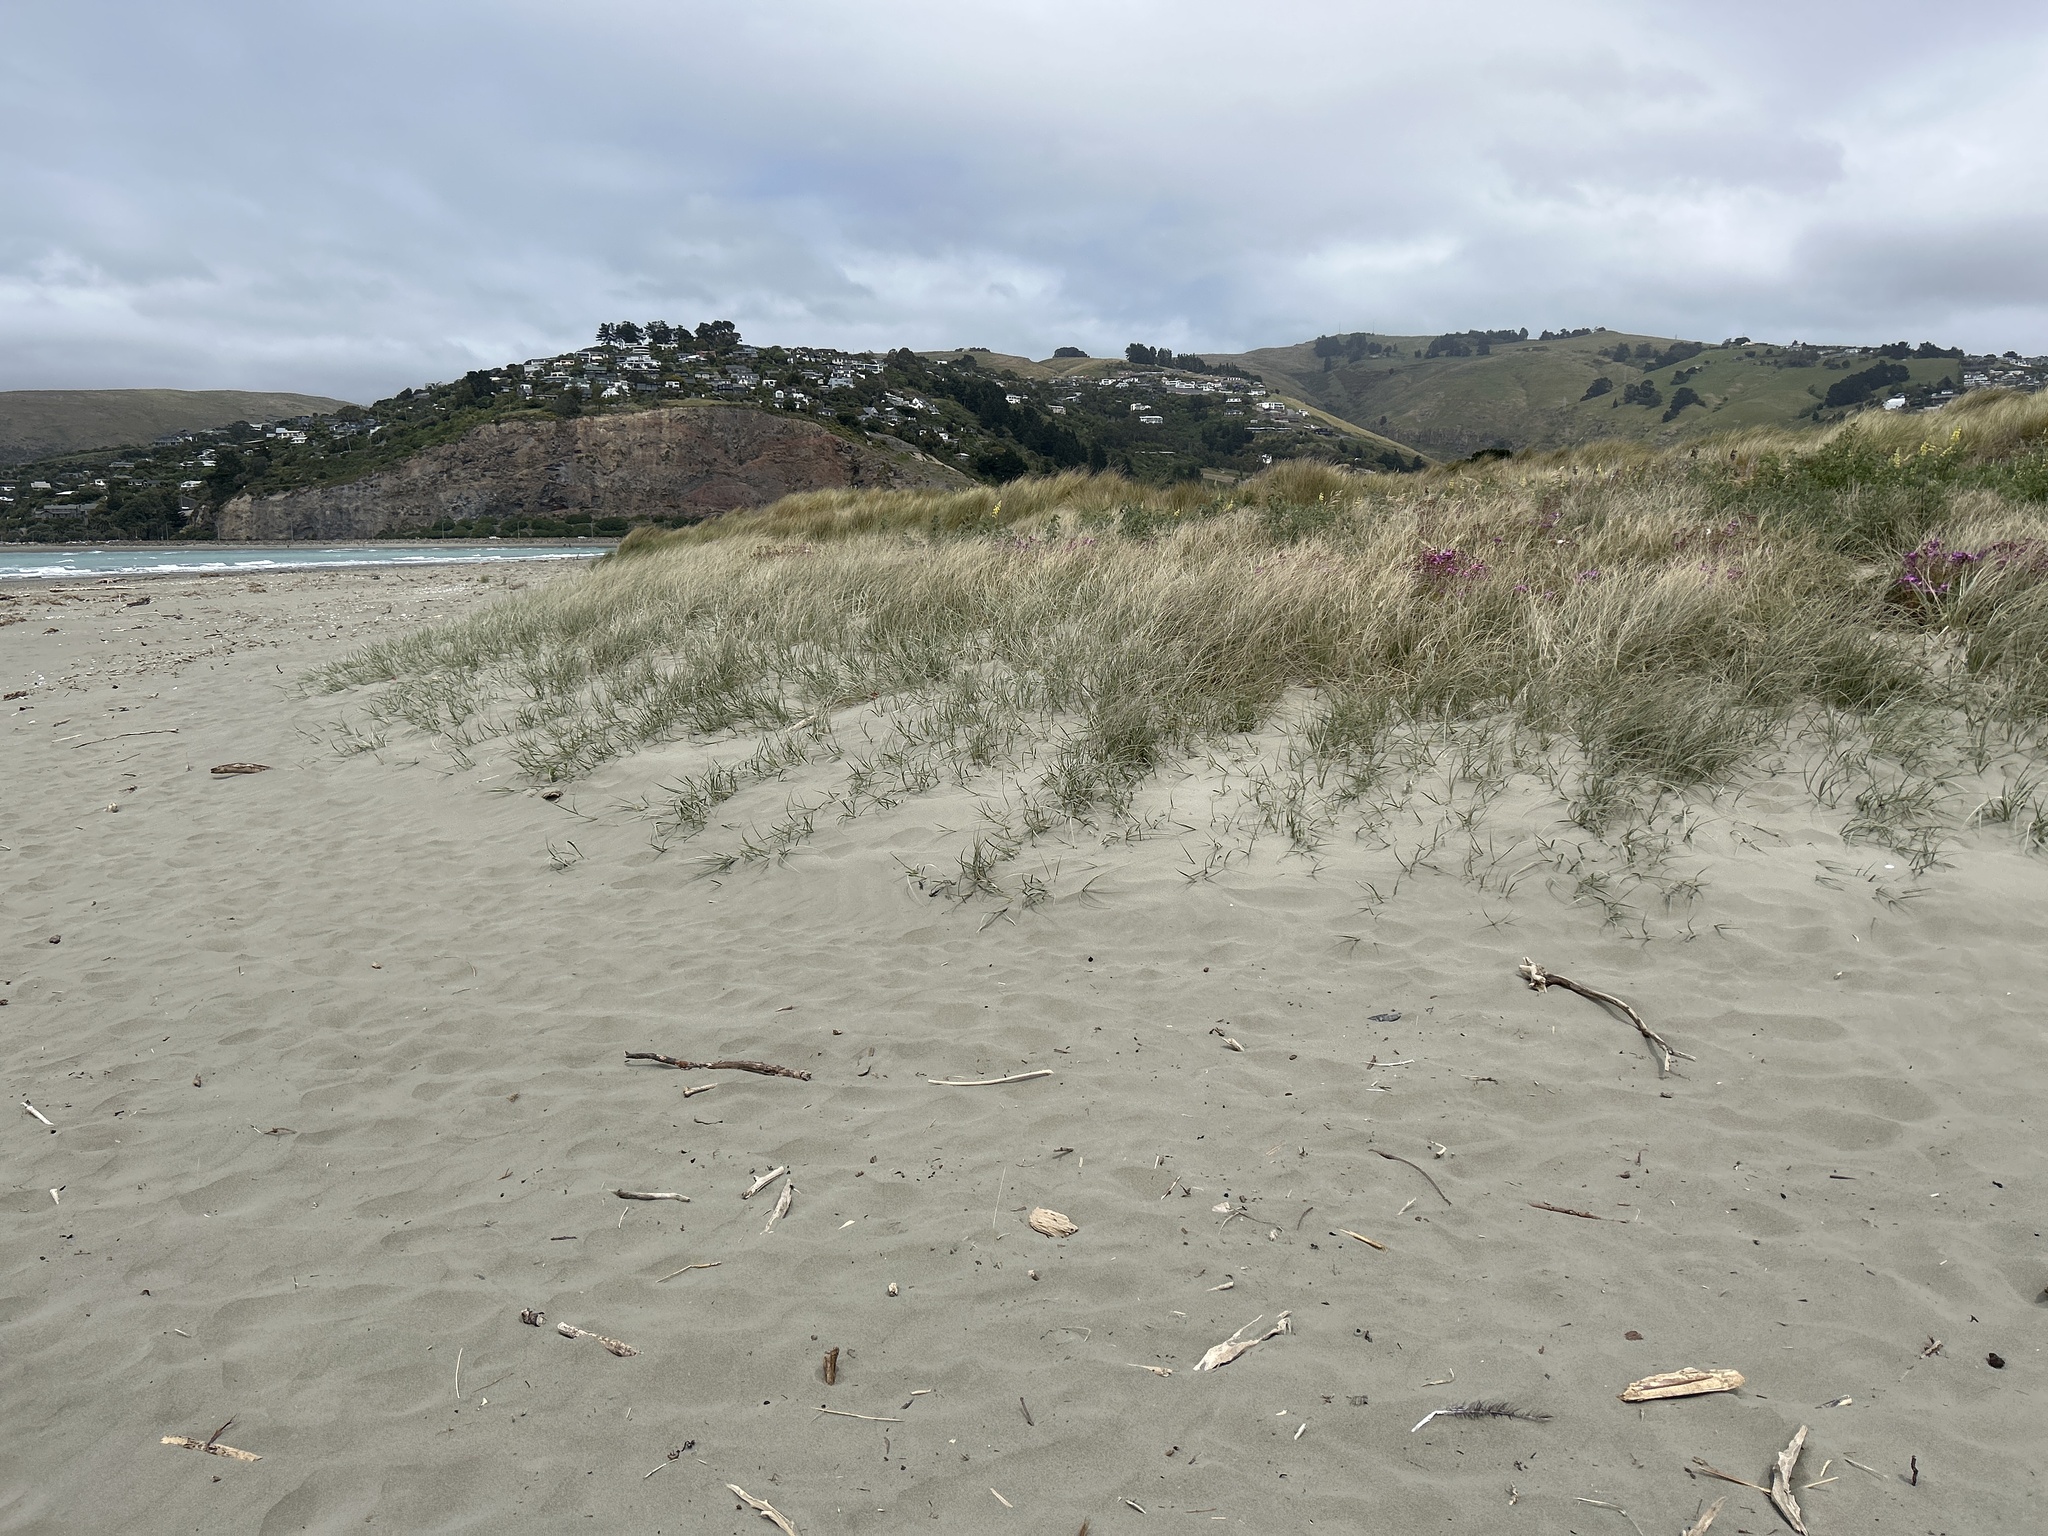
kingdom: Plantae
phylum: Tracheophyta
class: Liliopsida
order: Poales
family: Poaceae
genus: Spinifex
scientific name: Spinifex sericeus
